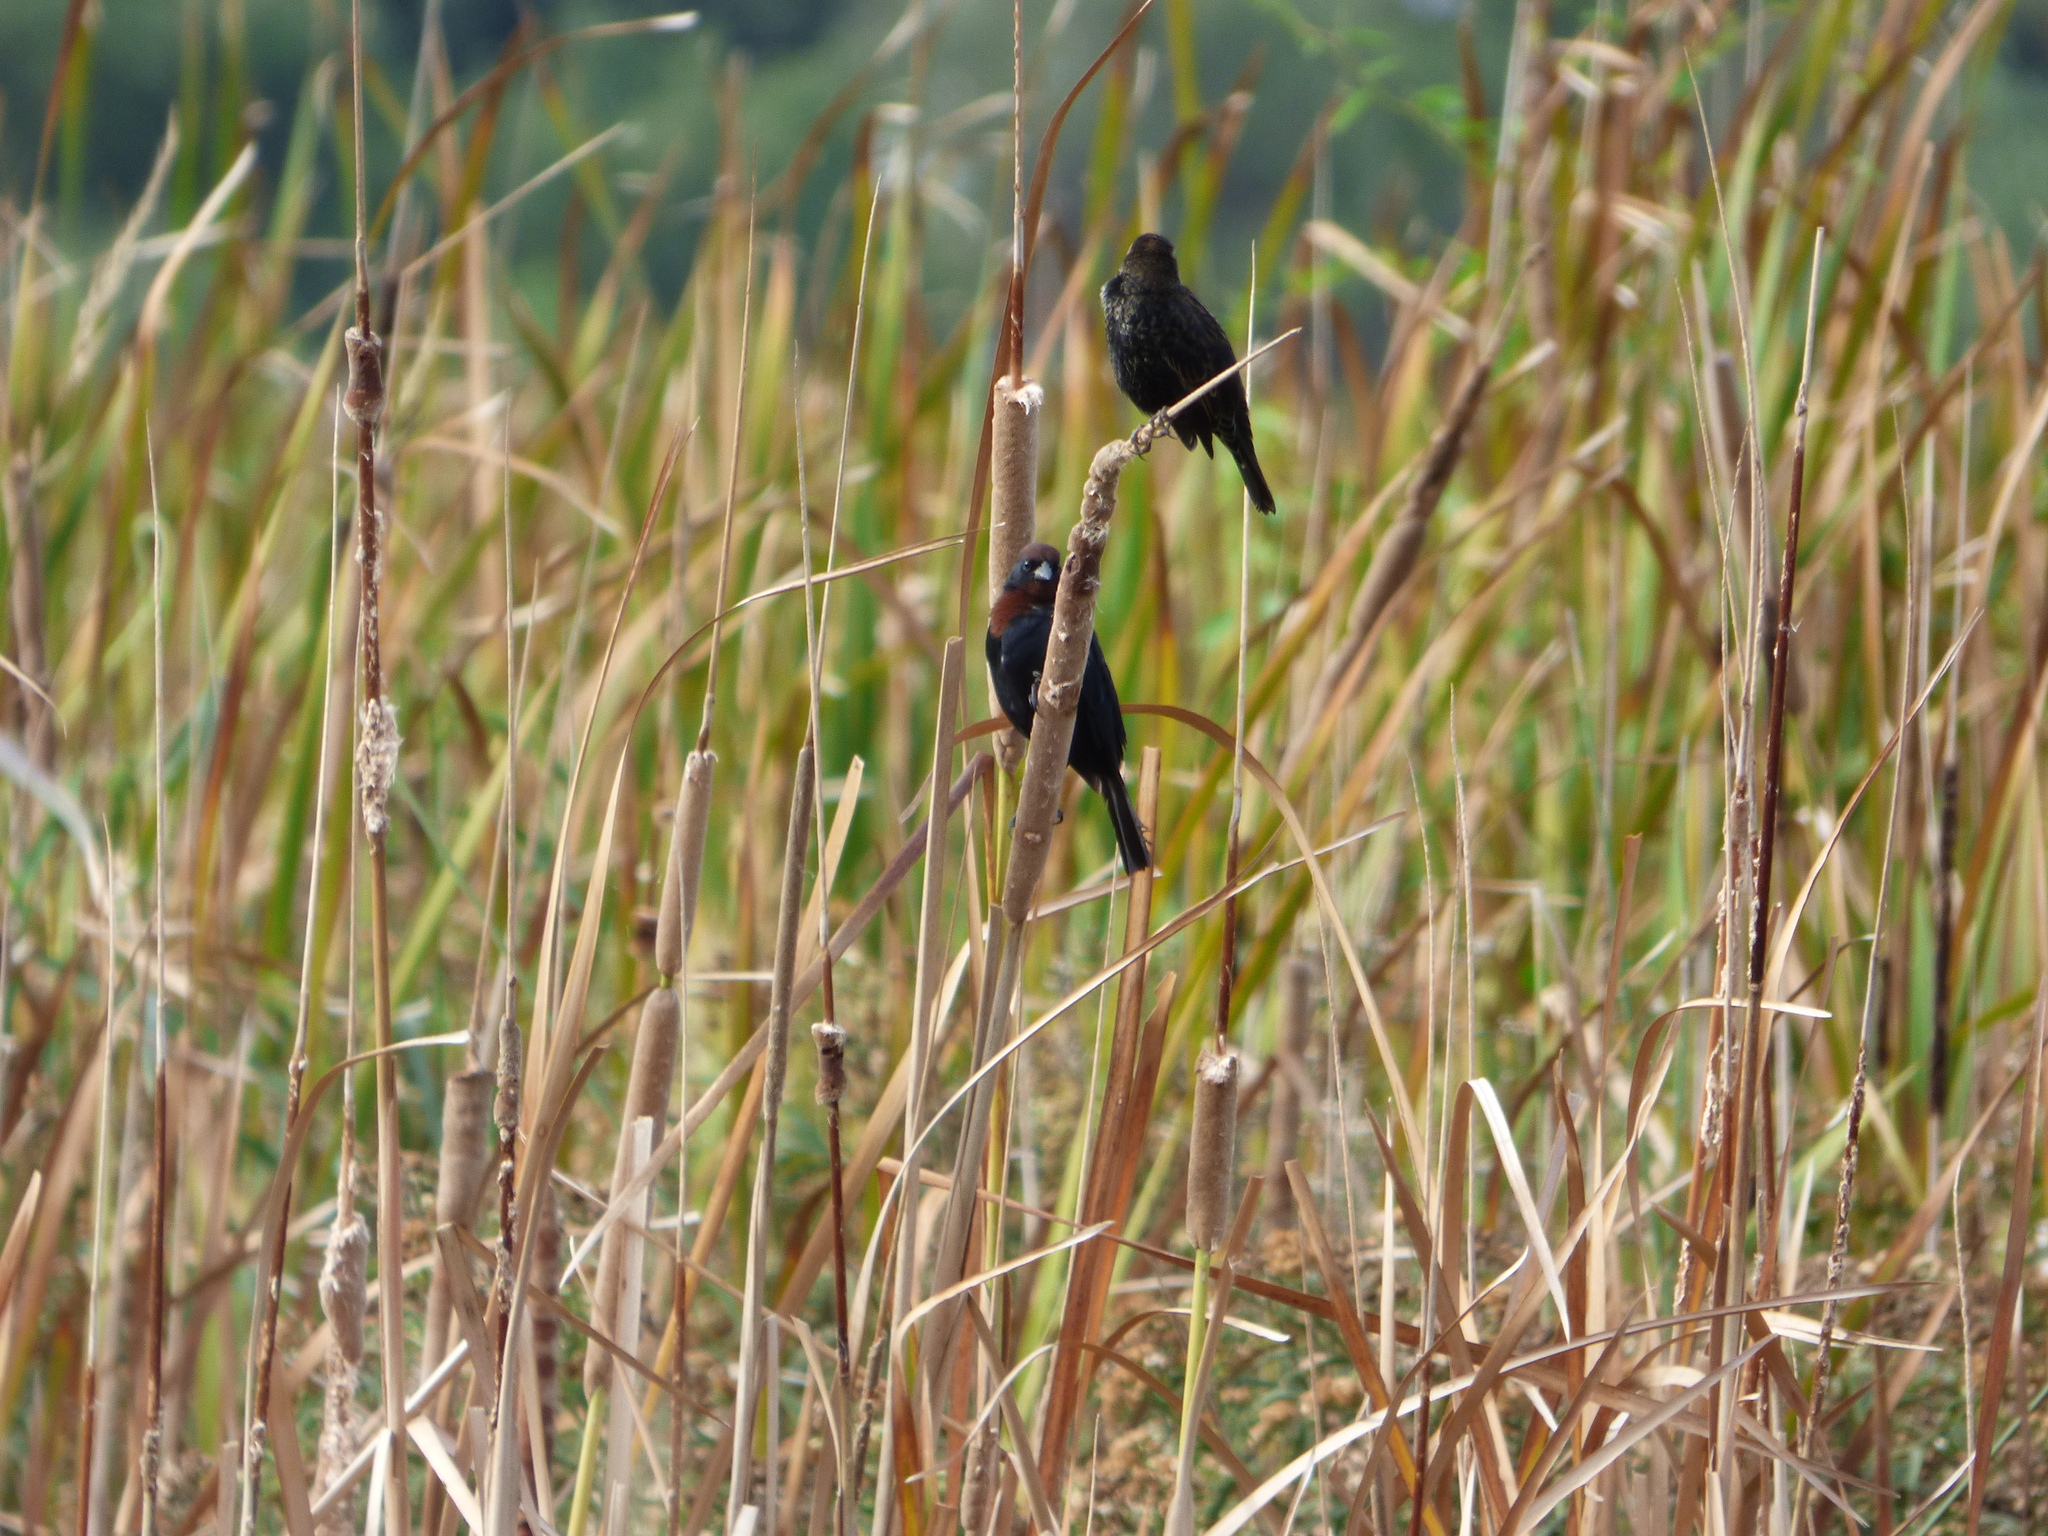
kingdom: Animalia
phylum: Chordata
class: Aves
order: Passeriformes
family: Icteridae
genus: Chrysomus
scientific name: Chrysomus ruficapillus
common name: Chestnut-capped blackbird
